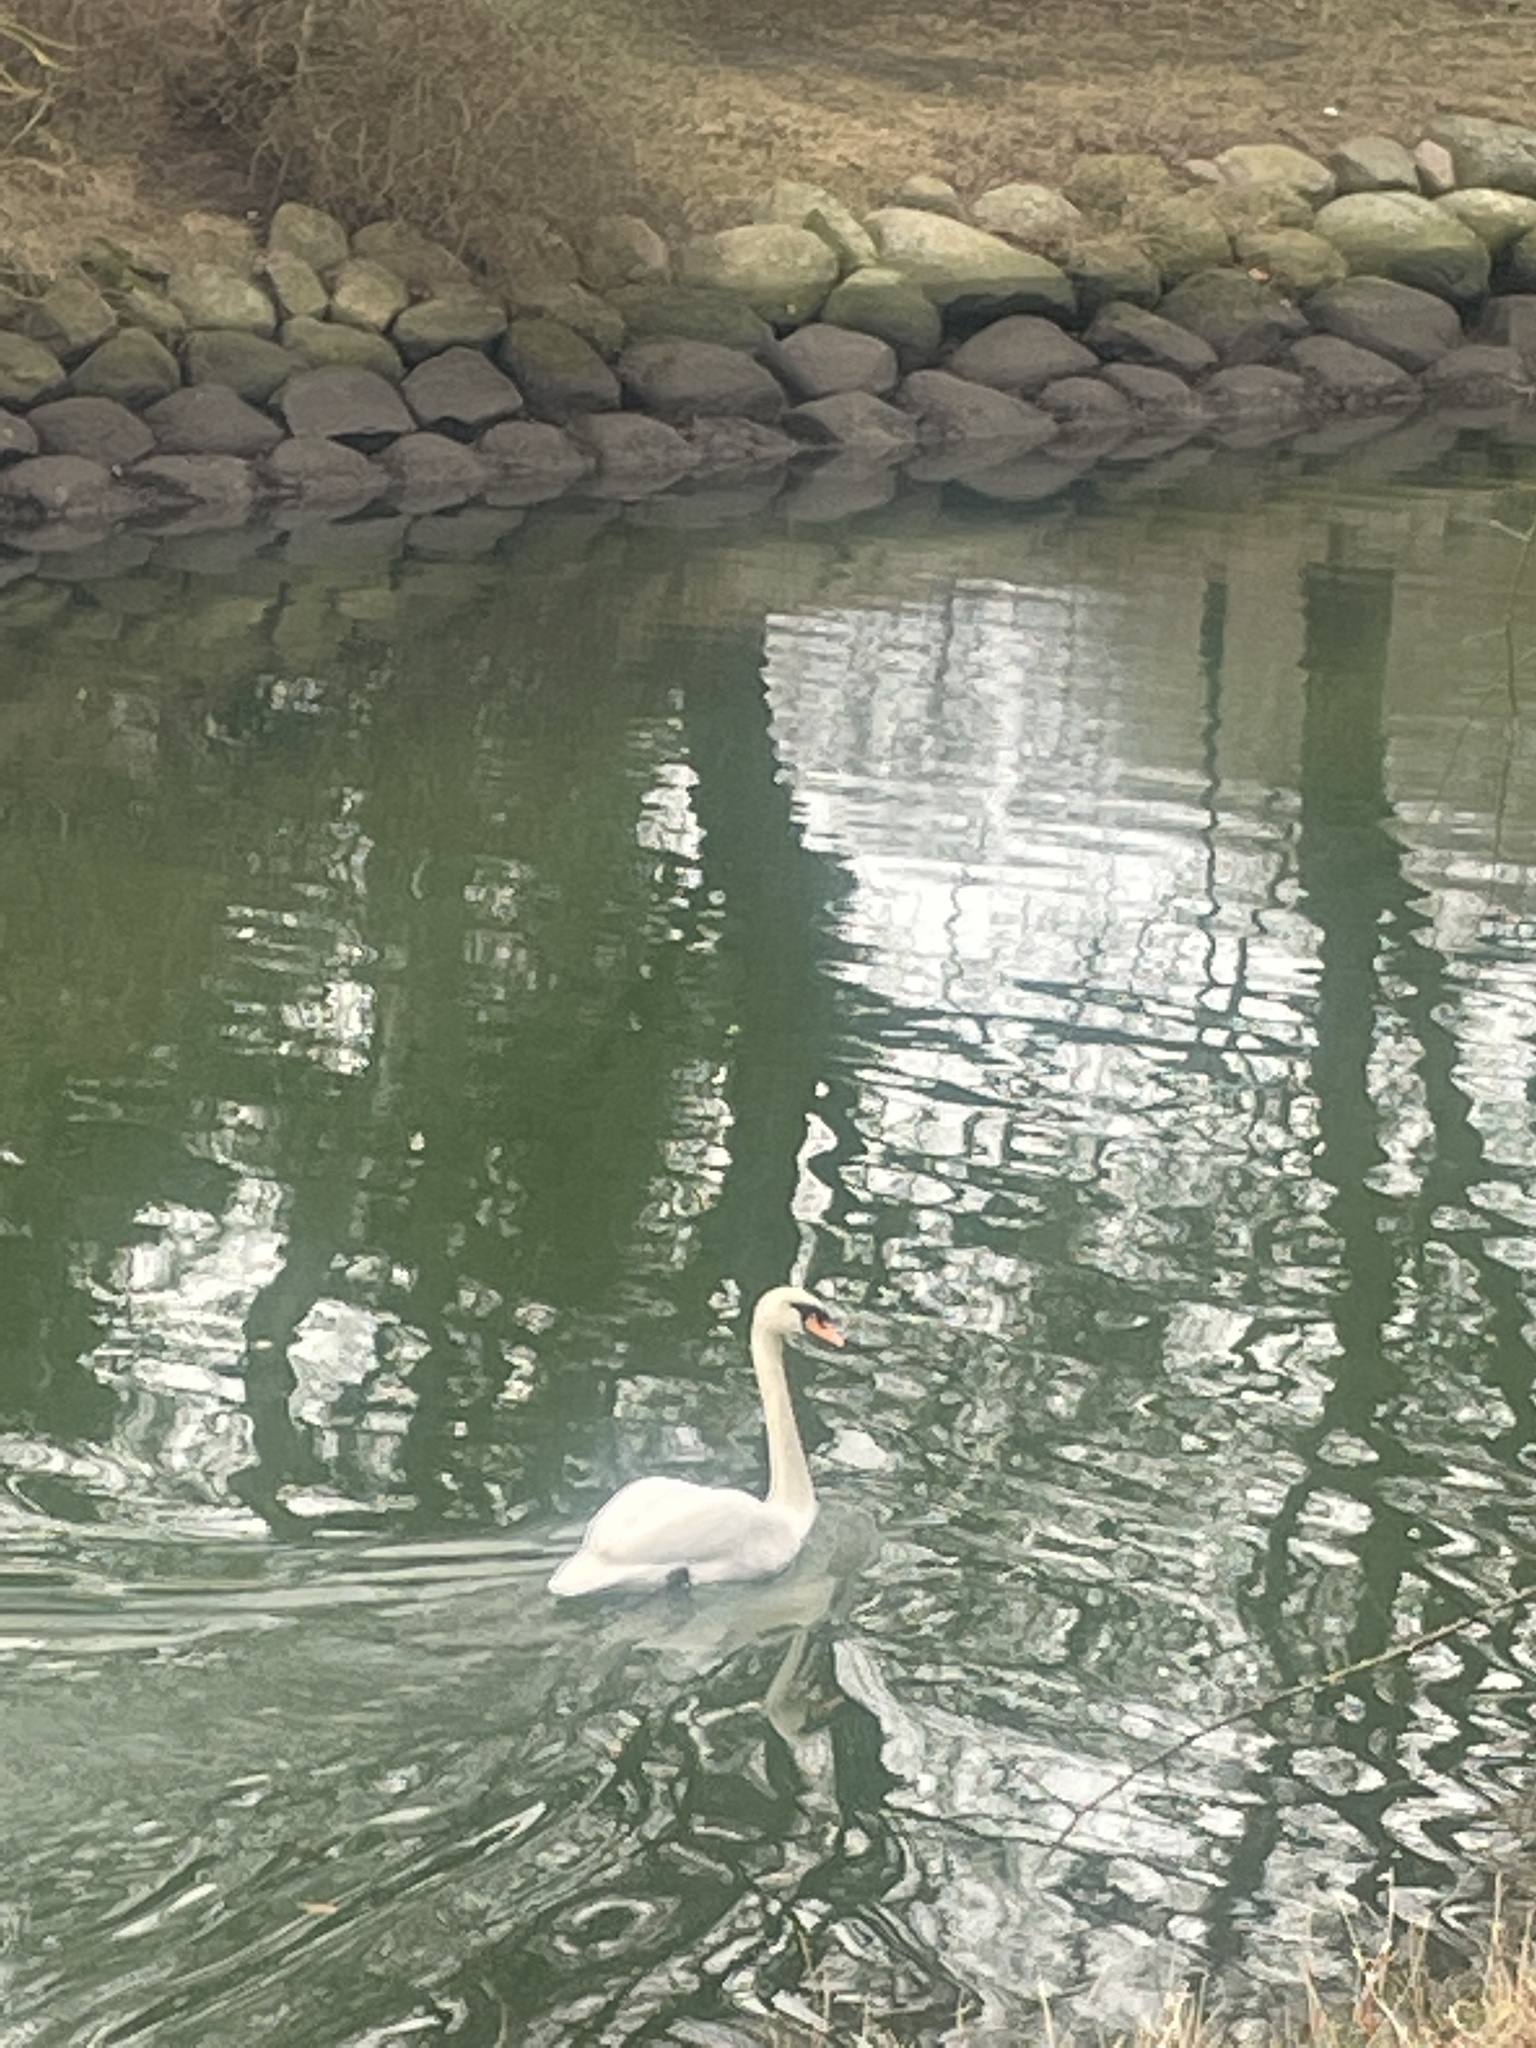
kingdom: Animalia
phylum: Chordata
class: Aves
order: Anseriformes
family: Anatidae
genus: Cygnus
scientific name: Cygnus olor
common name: Mute swan
